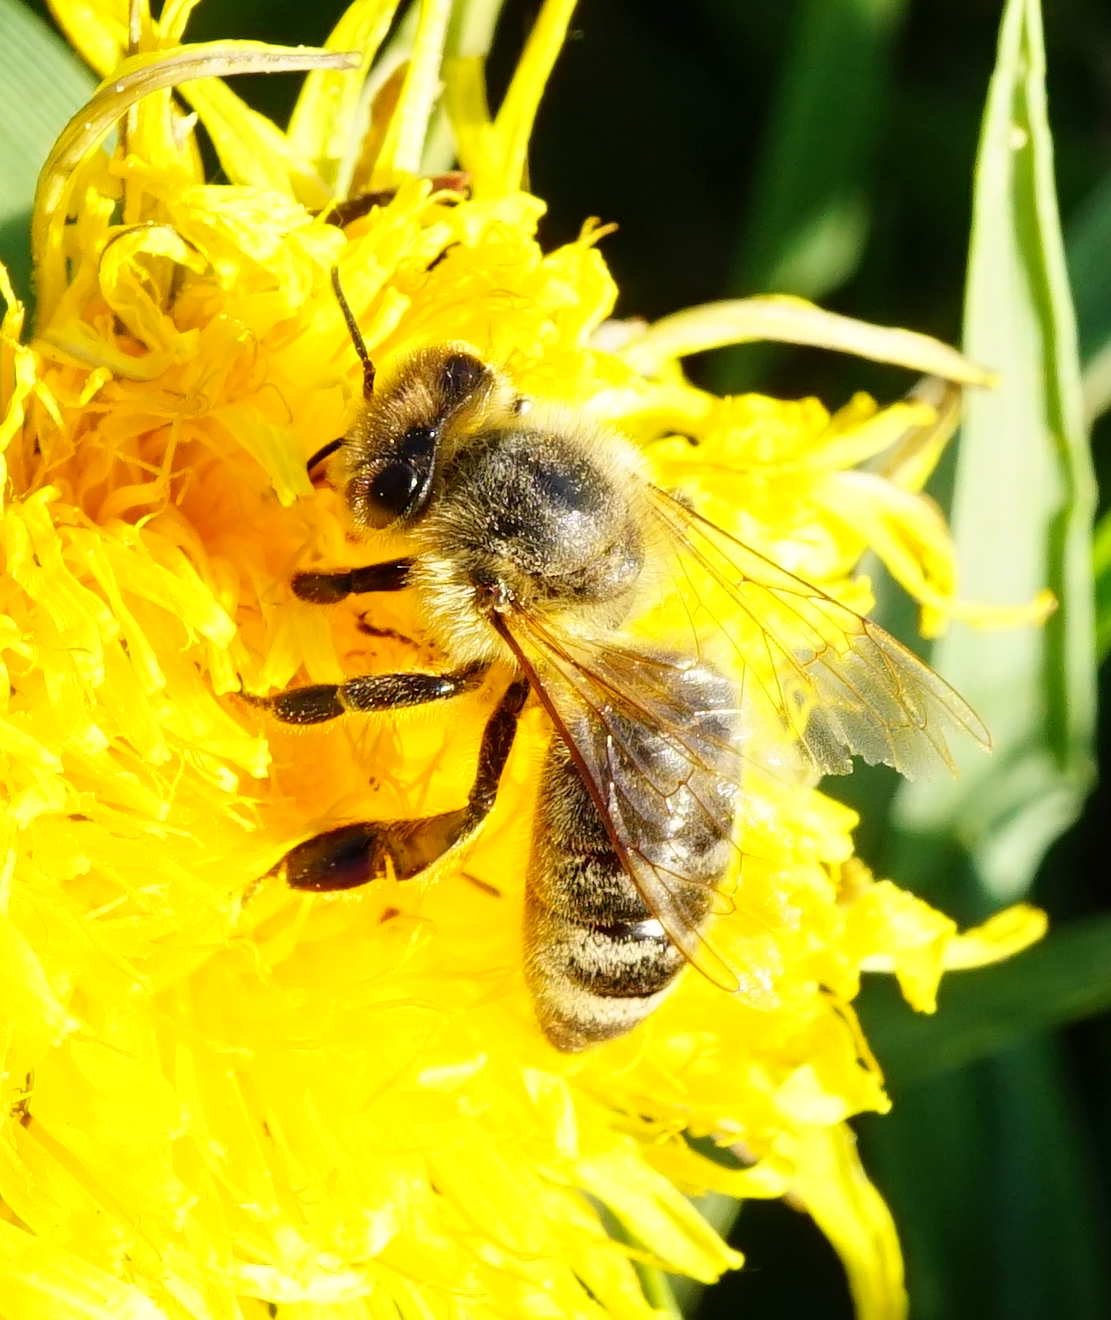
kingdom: Animalia
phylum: Arthropoda
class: Insecta
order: Hymenoptera
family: Apidae
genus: Apis
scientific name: Apis mellifera
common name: Honey bee
